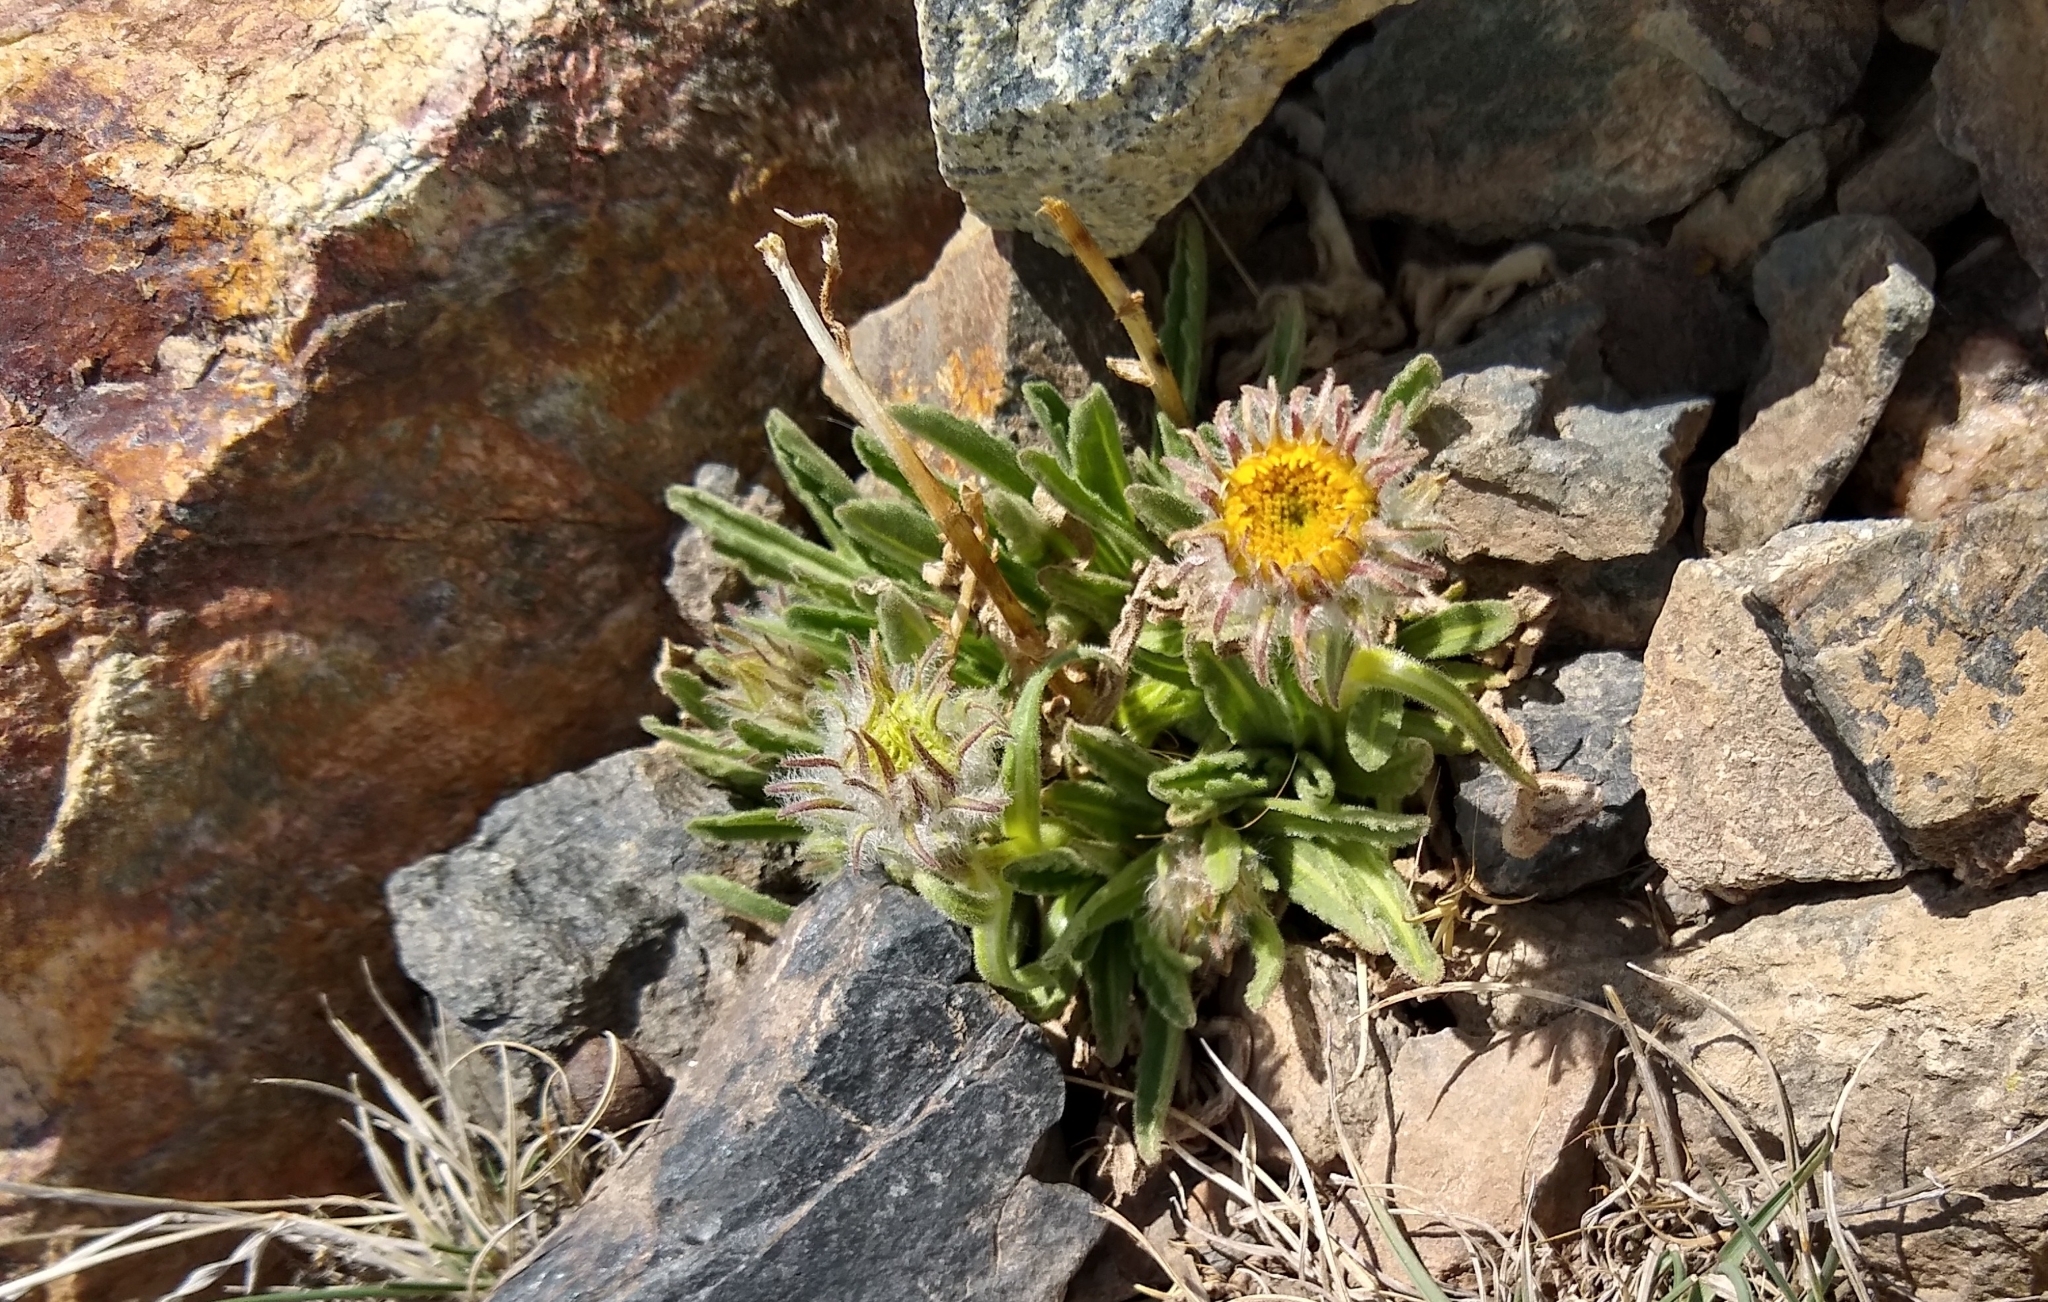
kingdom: Plantae
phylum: Tracheophyta
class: Magnoliopsida
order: Asterales
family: Asteraceae
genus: Hulsea
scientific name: Hulsea algida
